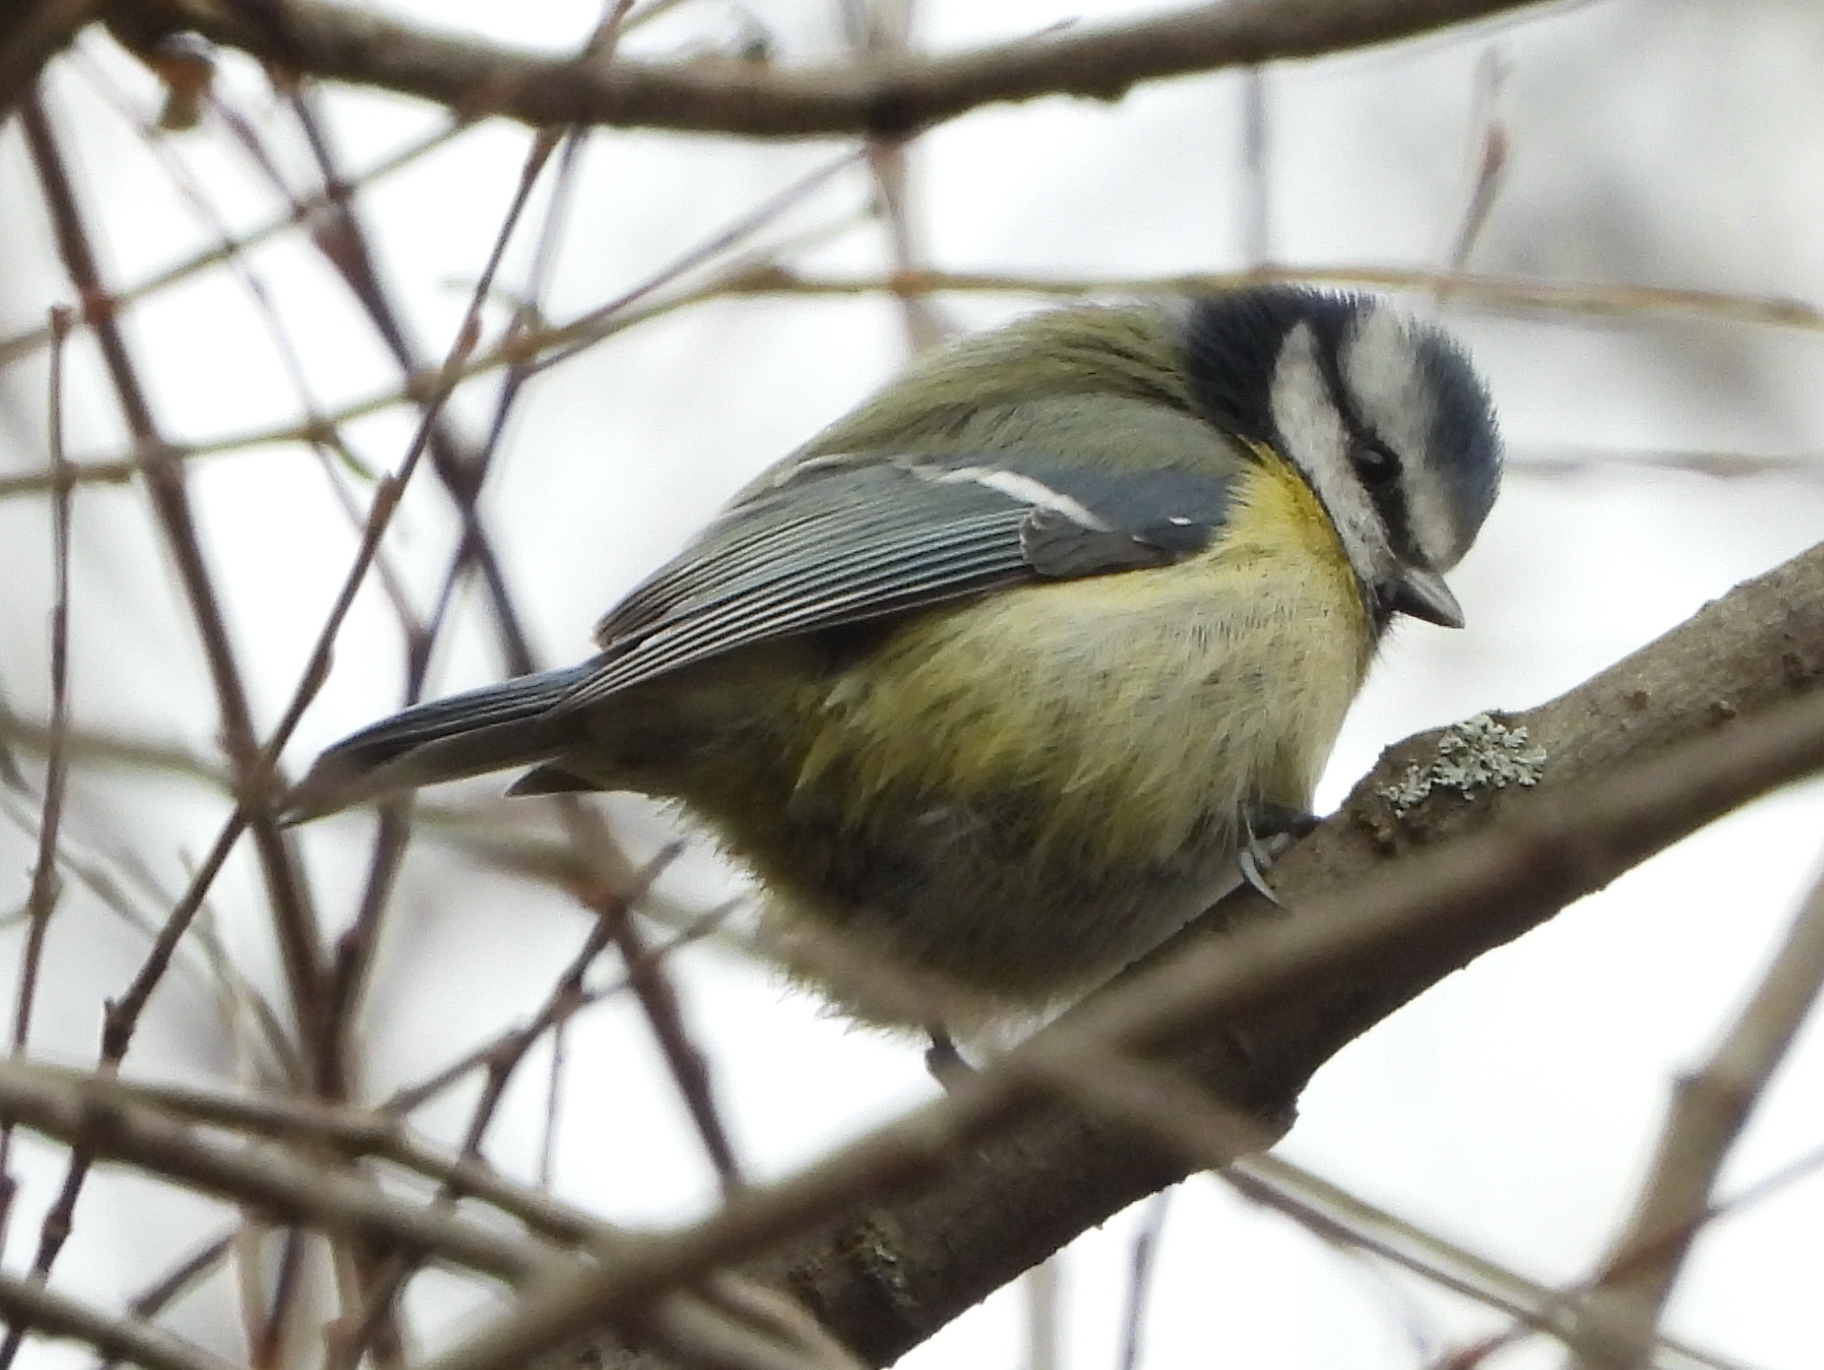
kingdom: Animalia
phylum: Chordata
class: Aves
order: Passeriformes
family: Paridae
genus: Cyanistes
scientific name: Cyanistes caeruleus
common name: Eurasian blue tit
